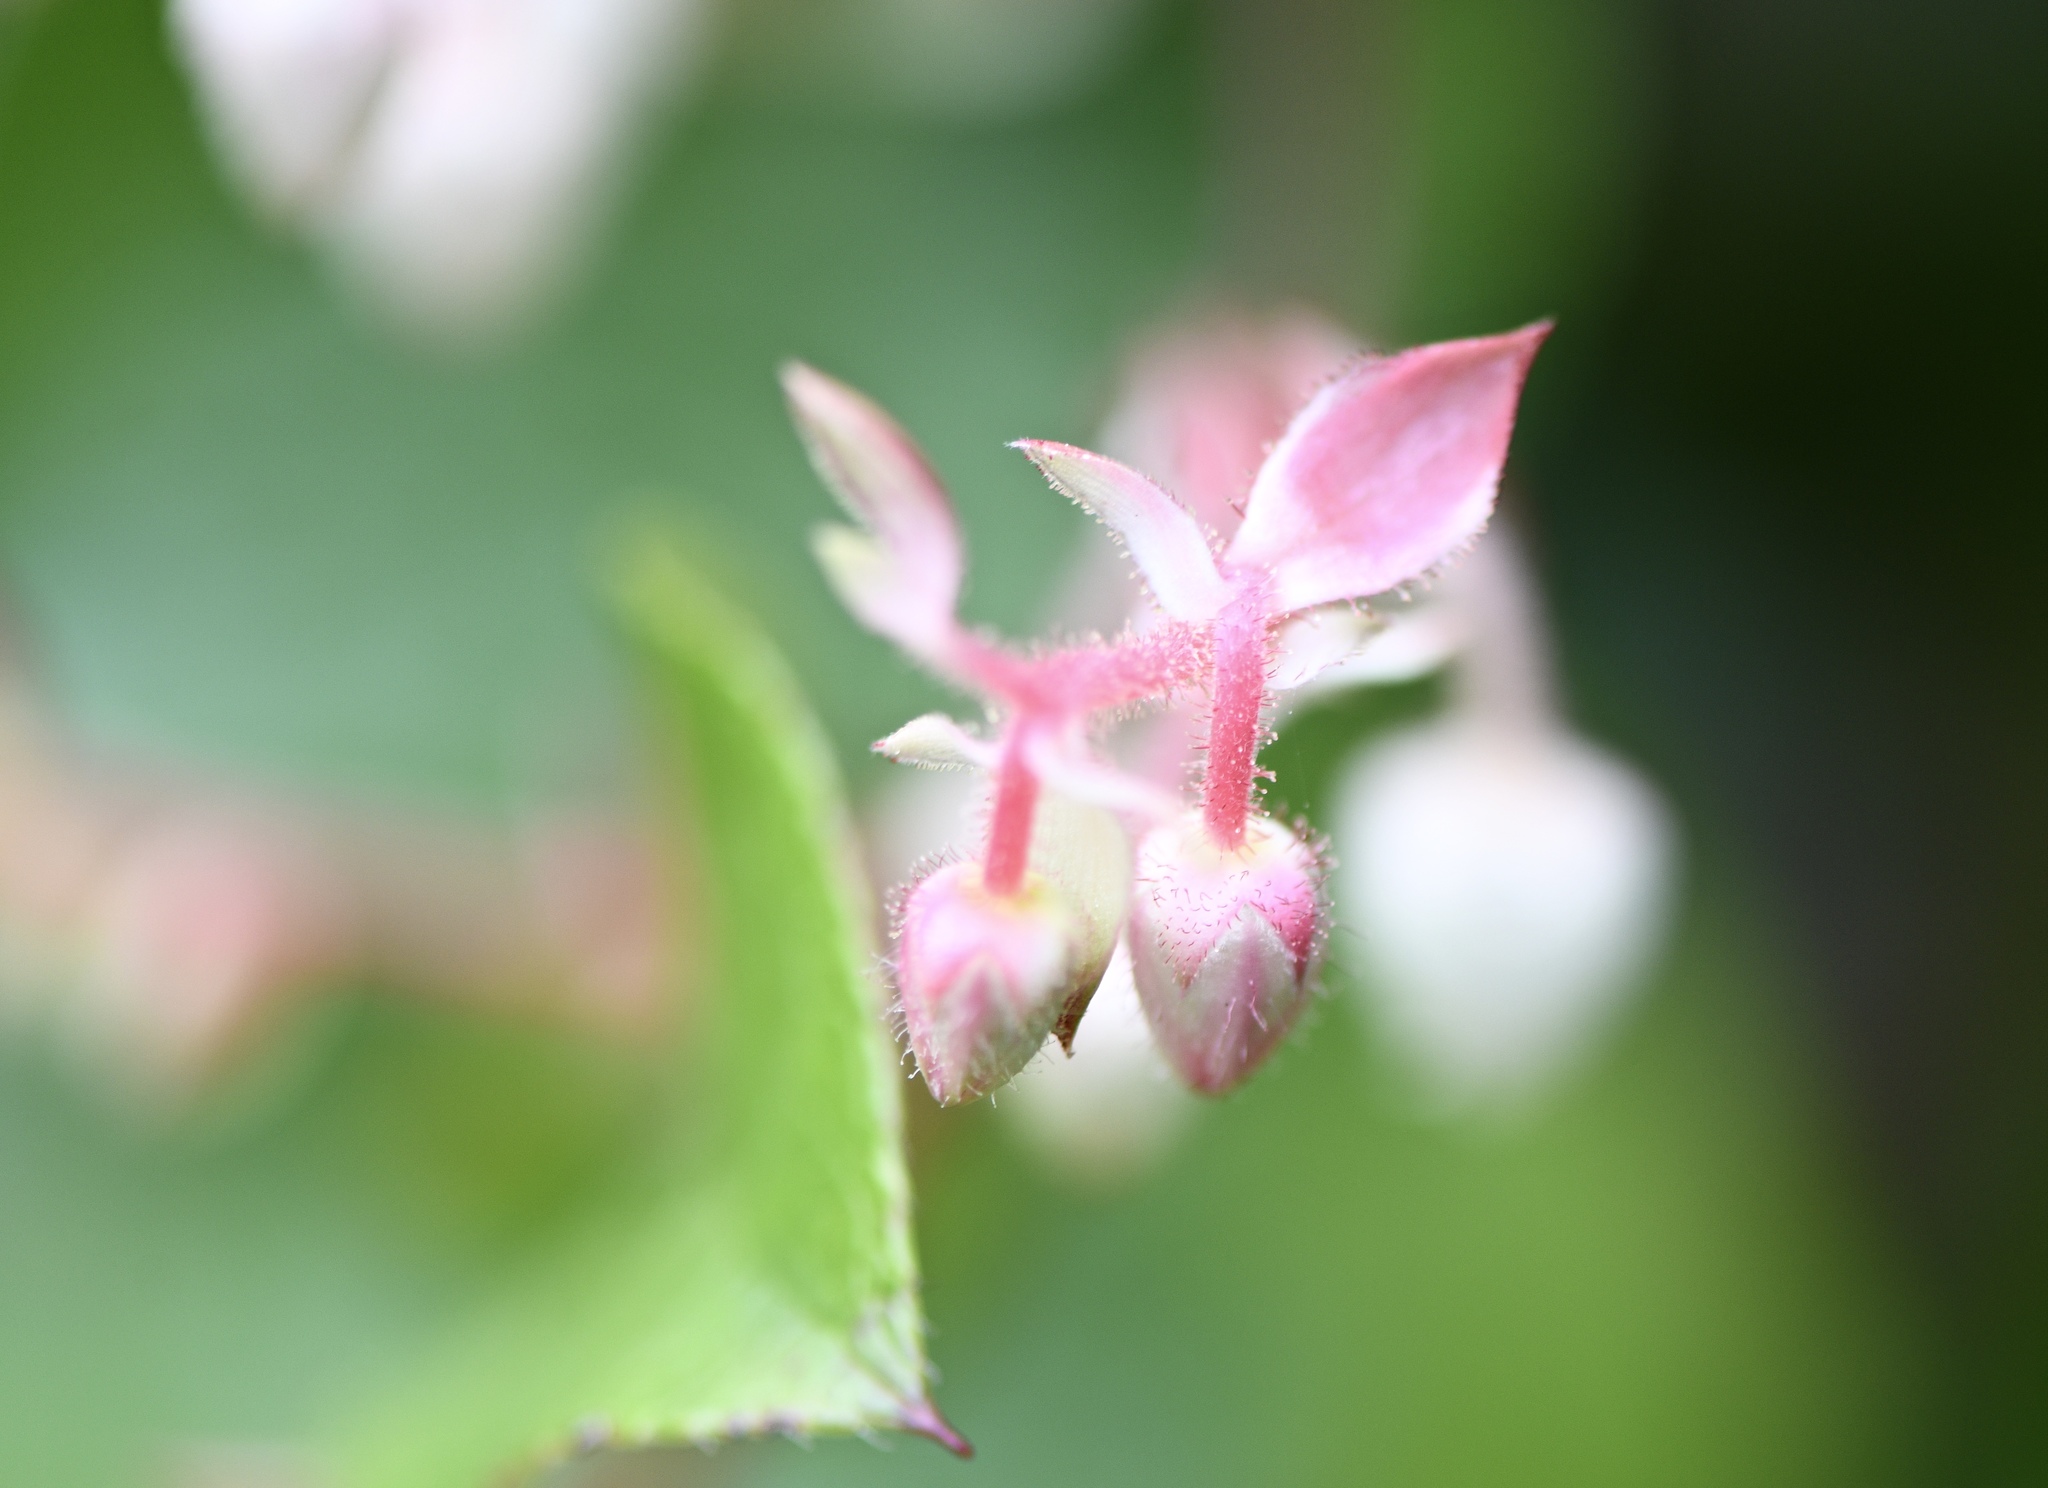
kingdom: Plantae
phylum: Tracheophyta
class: Magnoliopsida
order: Ericales
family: Ericaceae
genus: Gaultheria
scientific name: Gaultheria shallon
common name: Shallon
